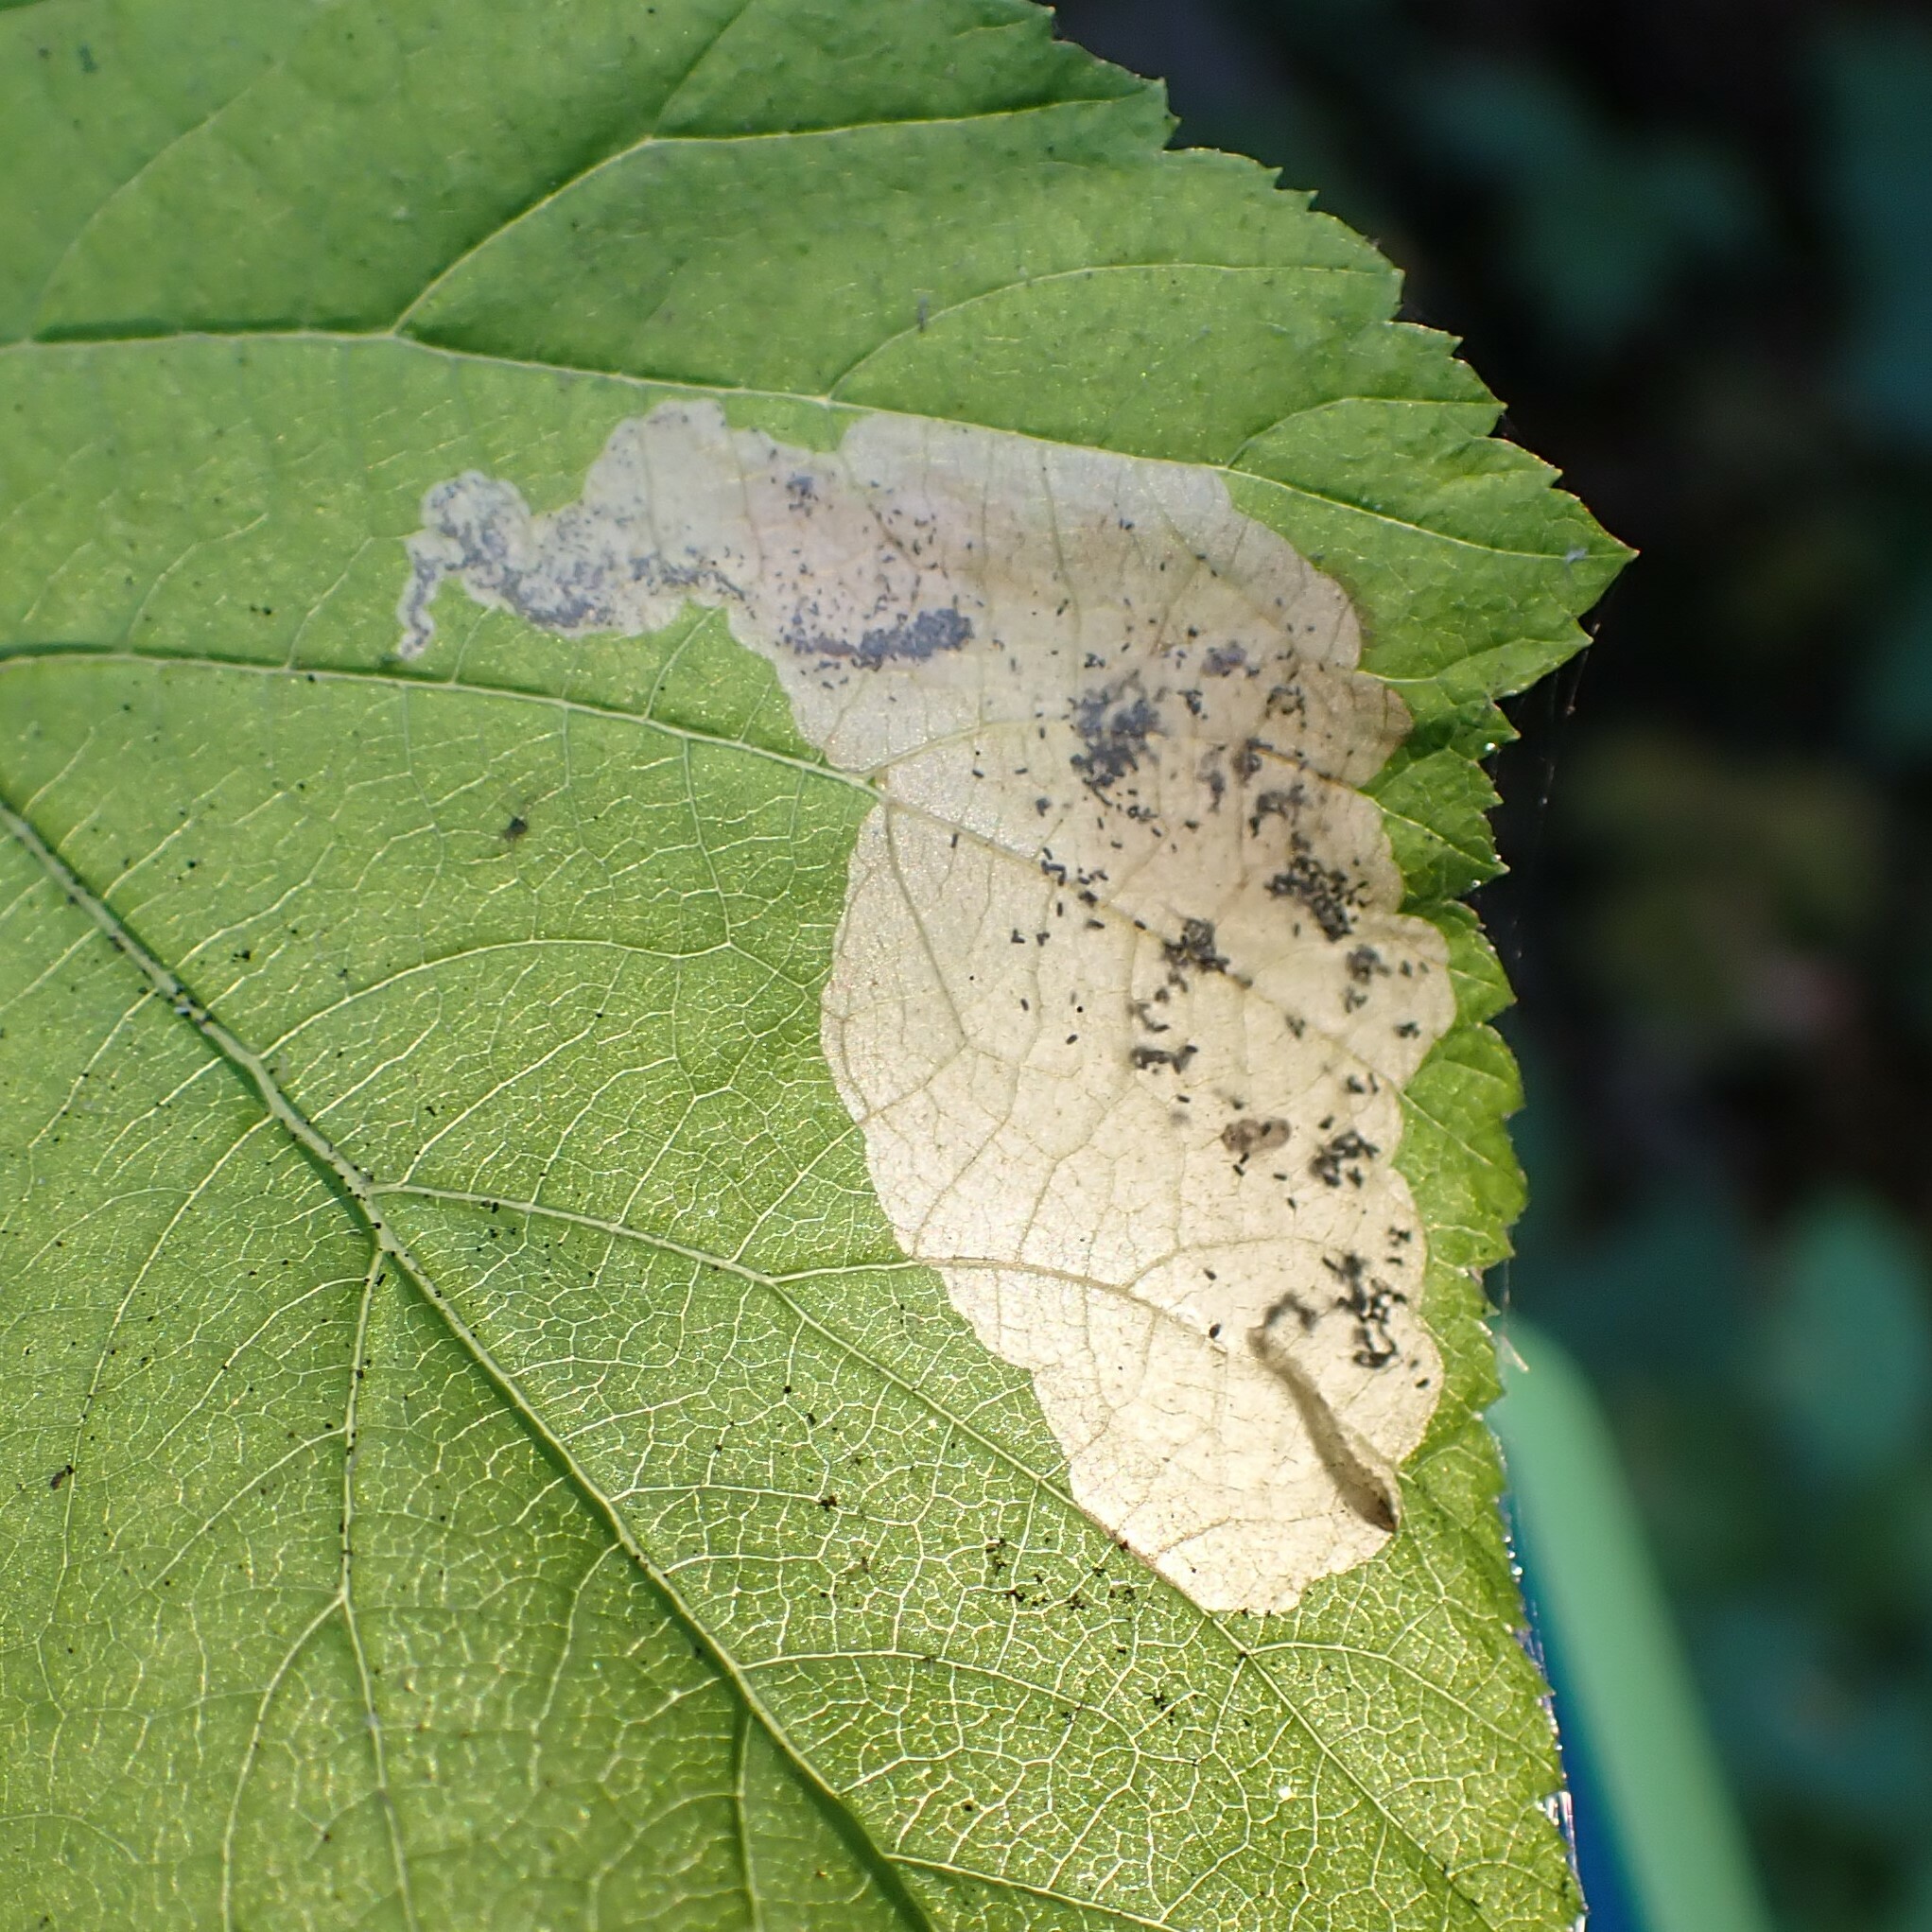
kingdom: Animalia
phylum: Arthropoda
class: Insecta
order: Hymenoptera
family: Tenthredinidae
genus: Metallus
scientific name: Metallus capitalis
